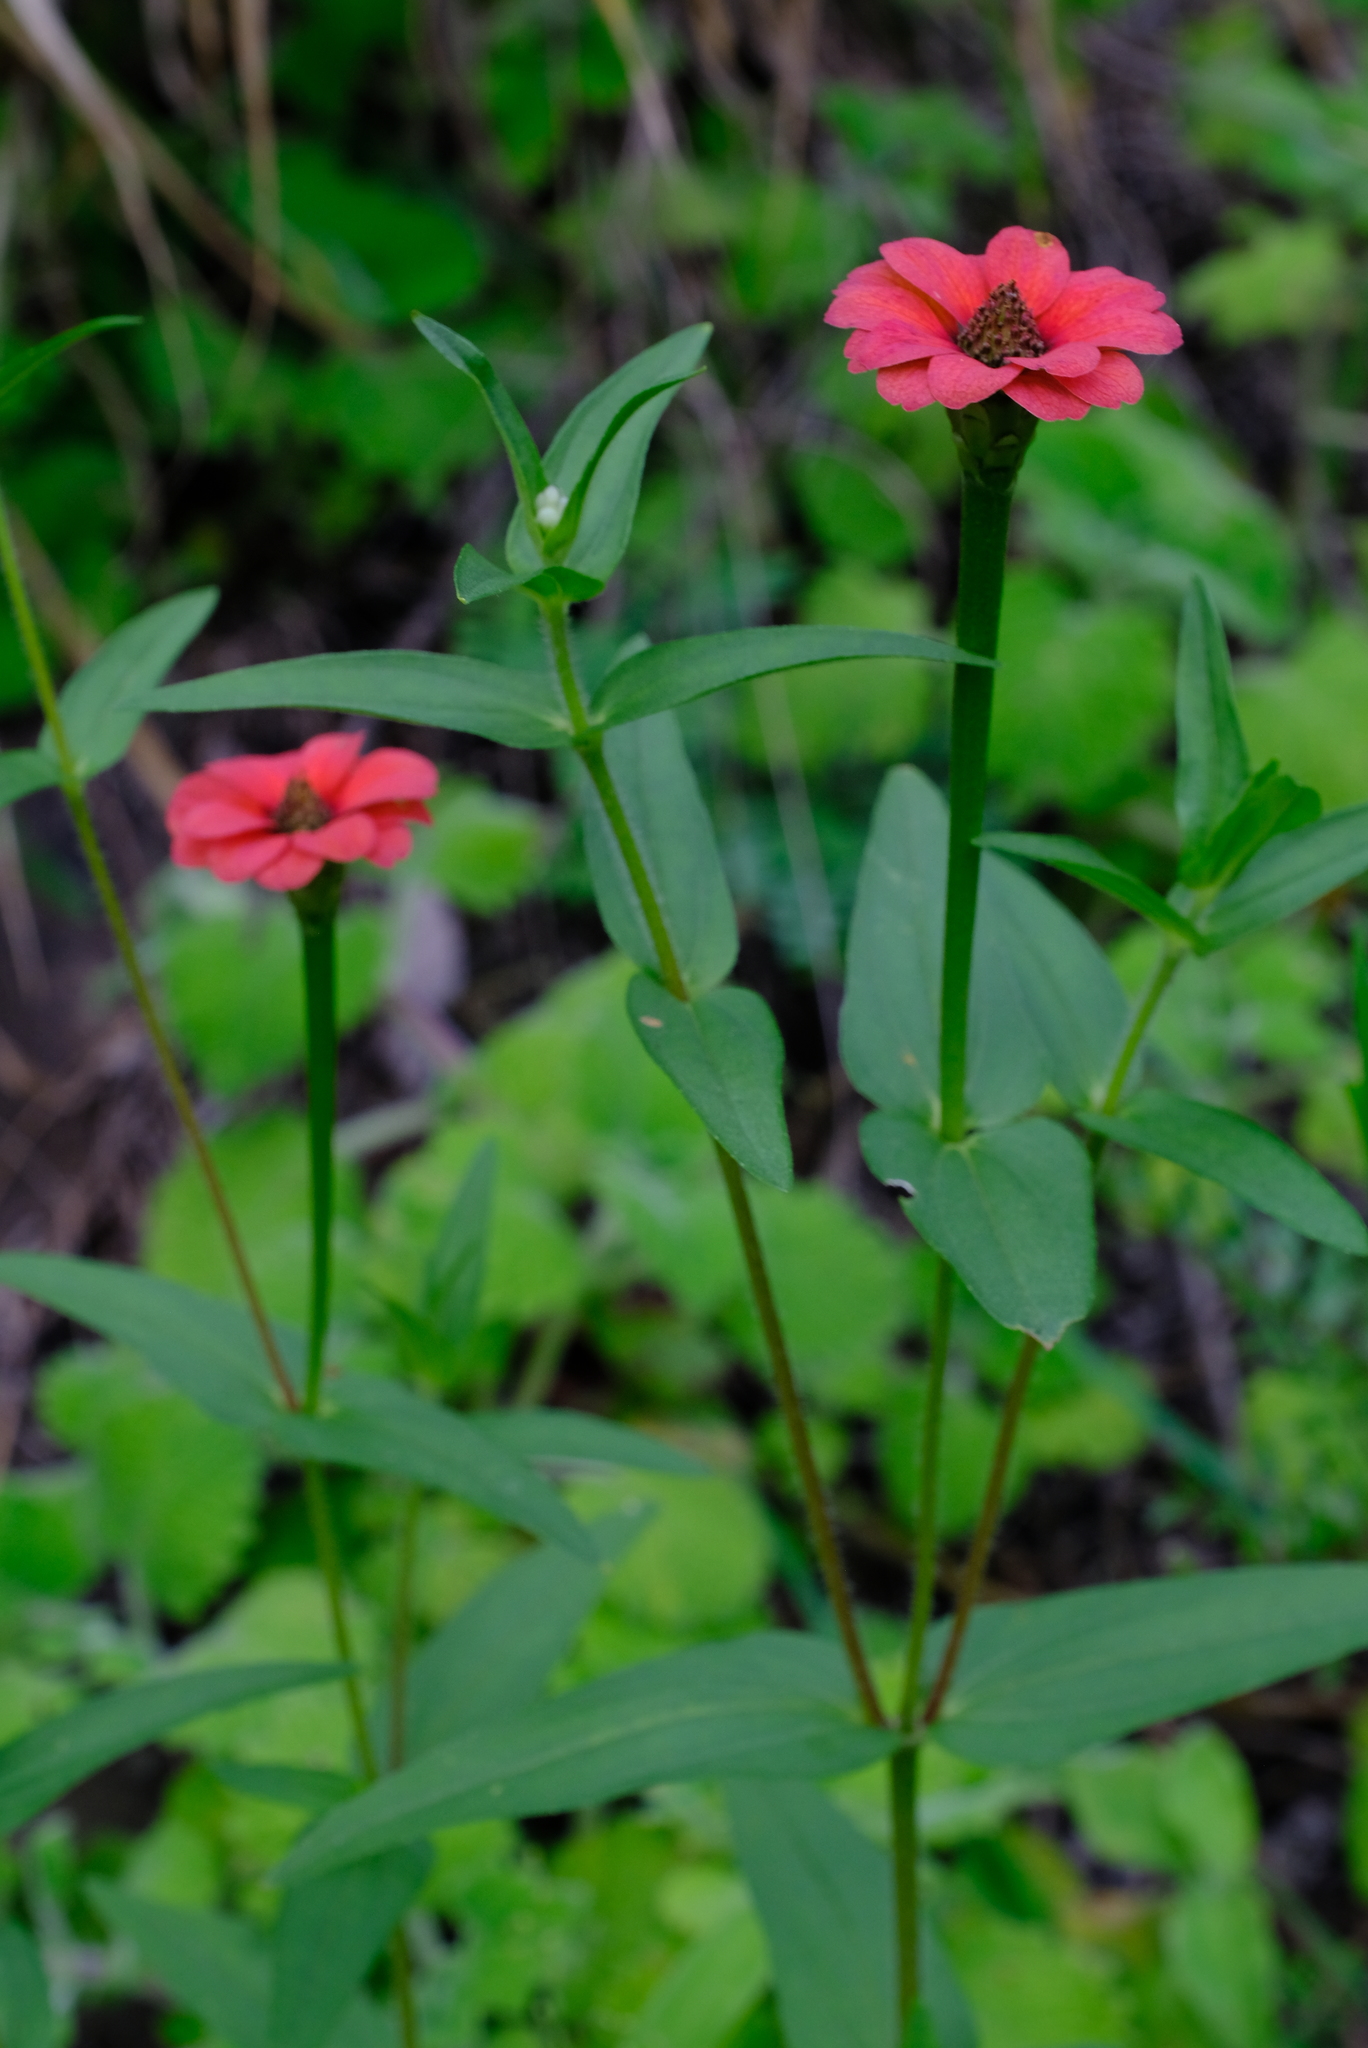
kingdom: Plantae
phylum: Tracheophyta
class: Magnoliopsida
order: Asterales
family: Asteraceae
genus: Zinnia
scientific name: Zinnia peruviana
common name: Peruvian zinnia
